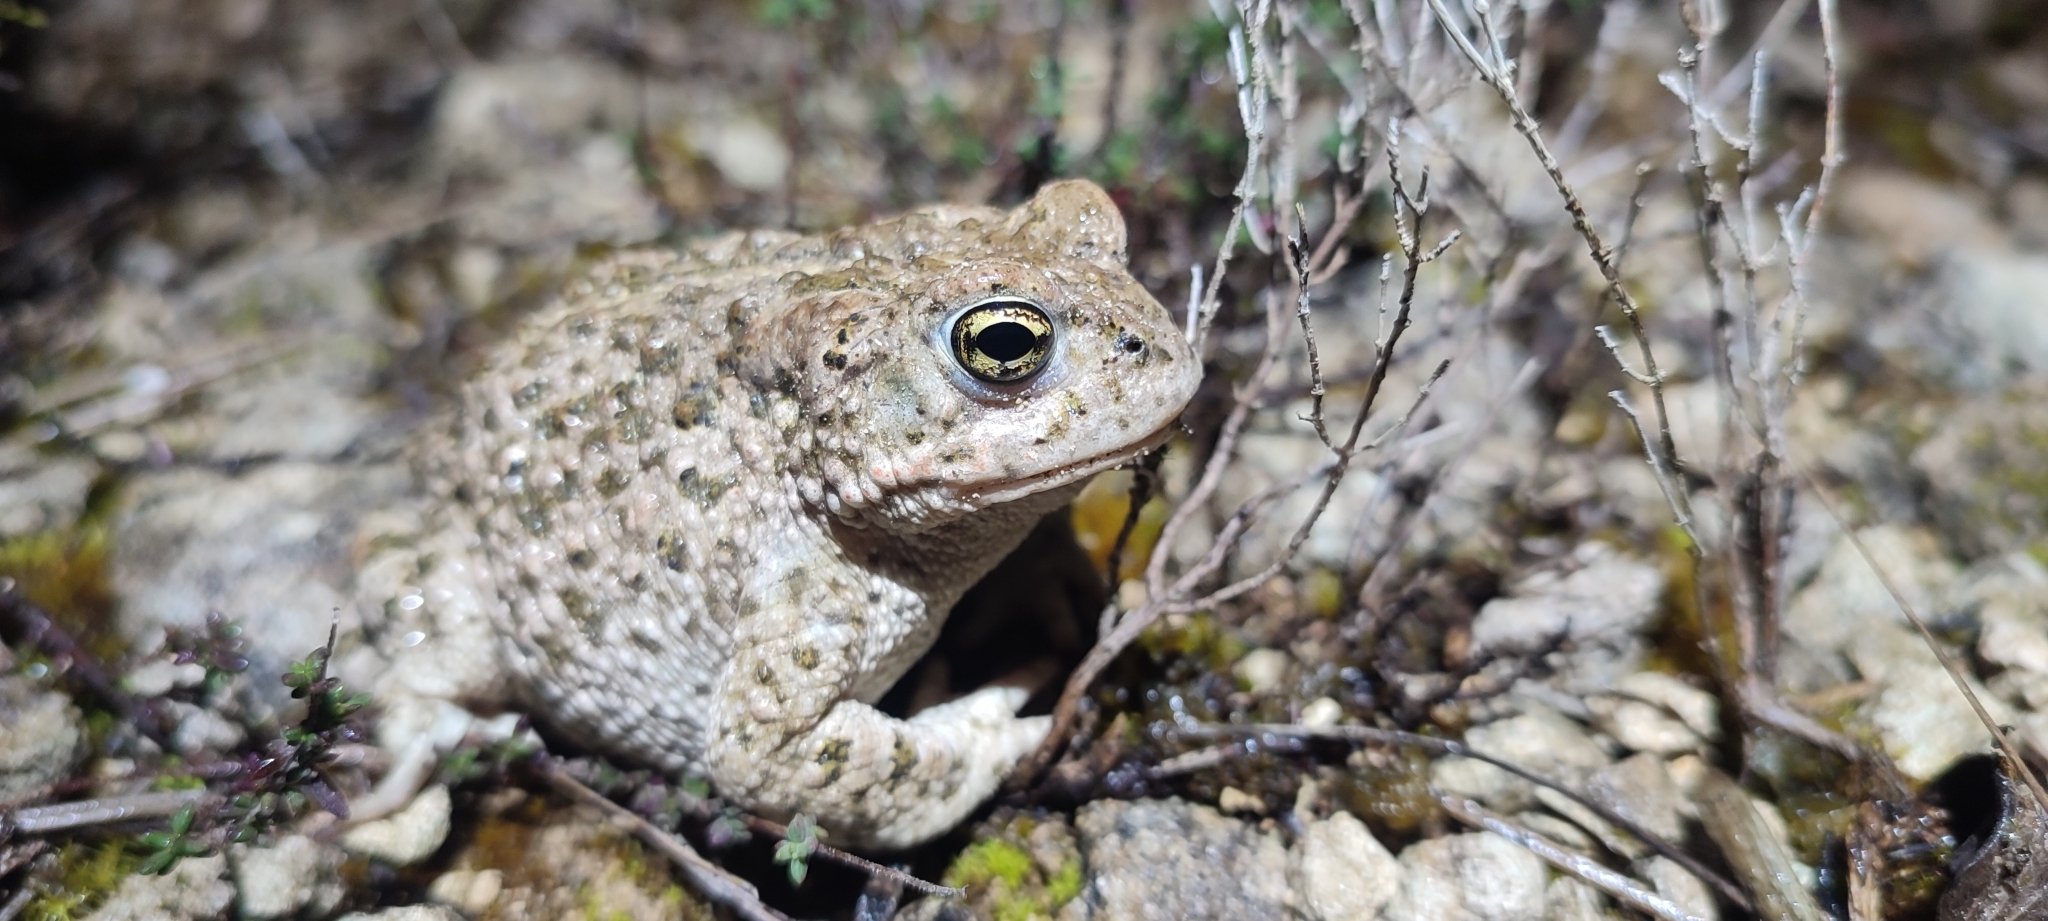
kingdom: Animalia
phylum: Chordata
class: Amphibia
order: Anura
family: Bufonidae
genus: Epidalea
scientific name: Epidalea calamita
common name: Natterjack toad
